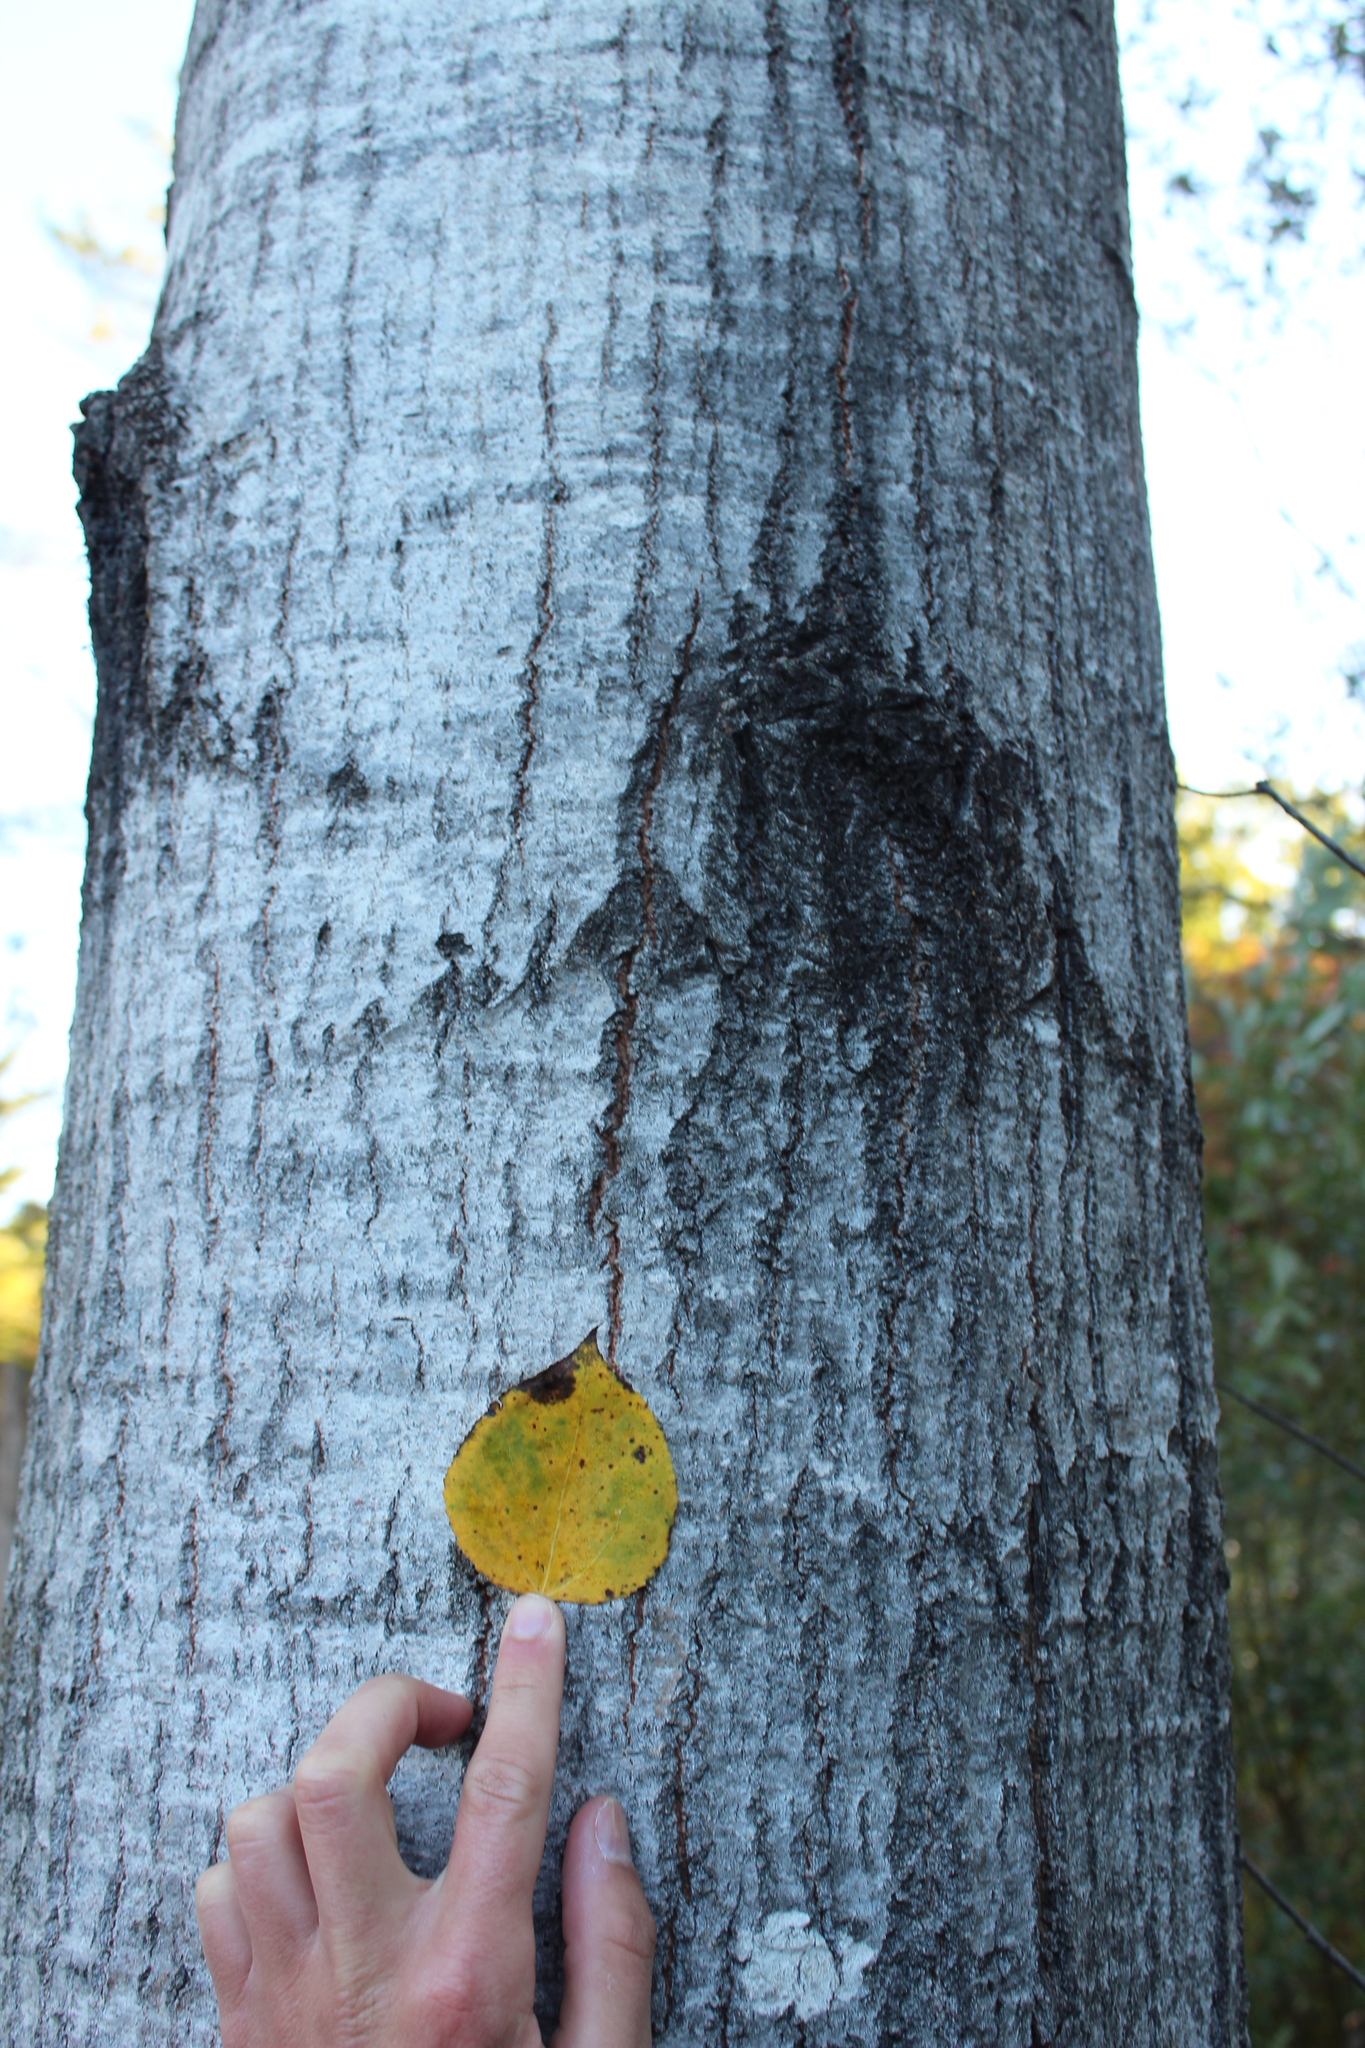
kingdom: Plantae
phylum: Tracheophyta
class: Magnoliopsida
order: Malpighiales
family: Salicaceae
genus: Populus
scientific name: Populus tremuloides
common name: Quaking aspen
